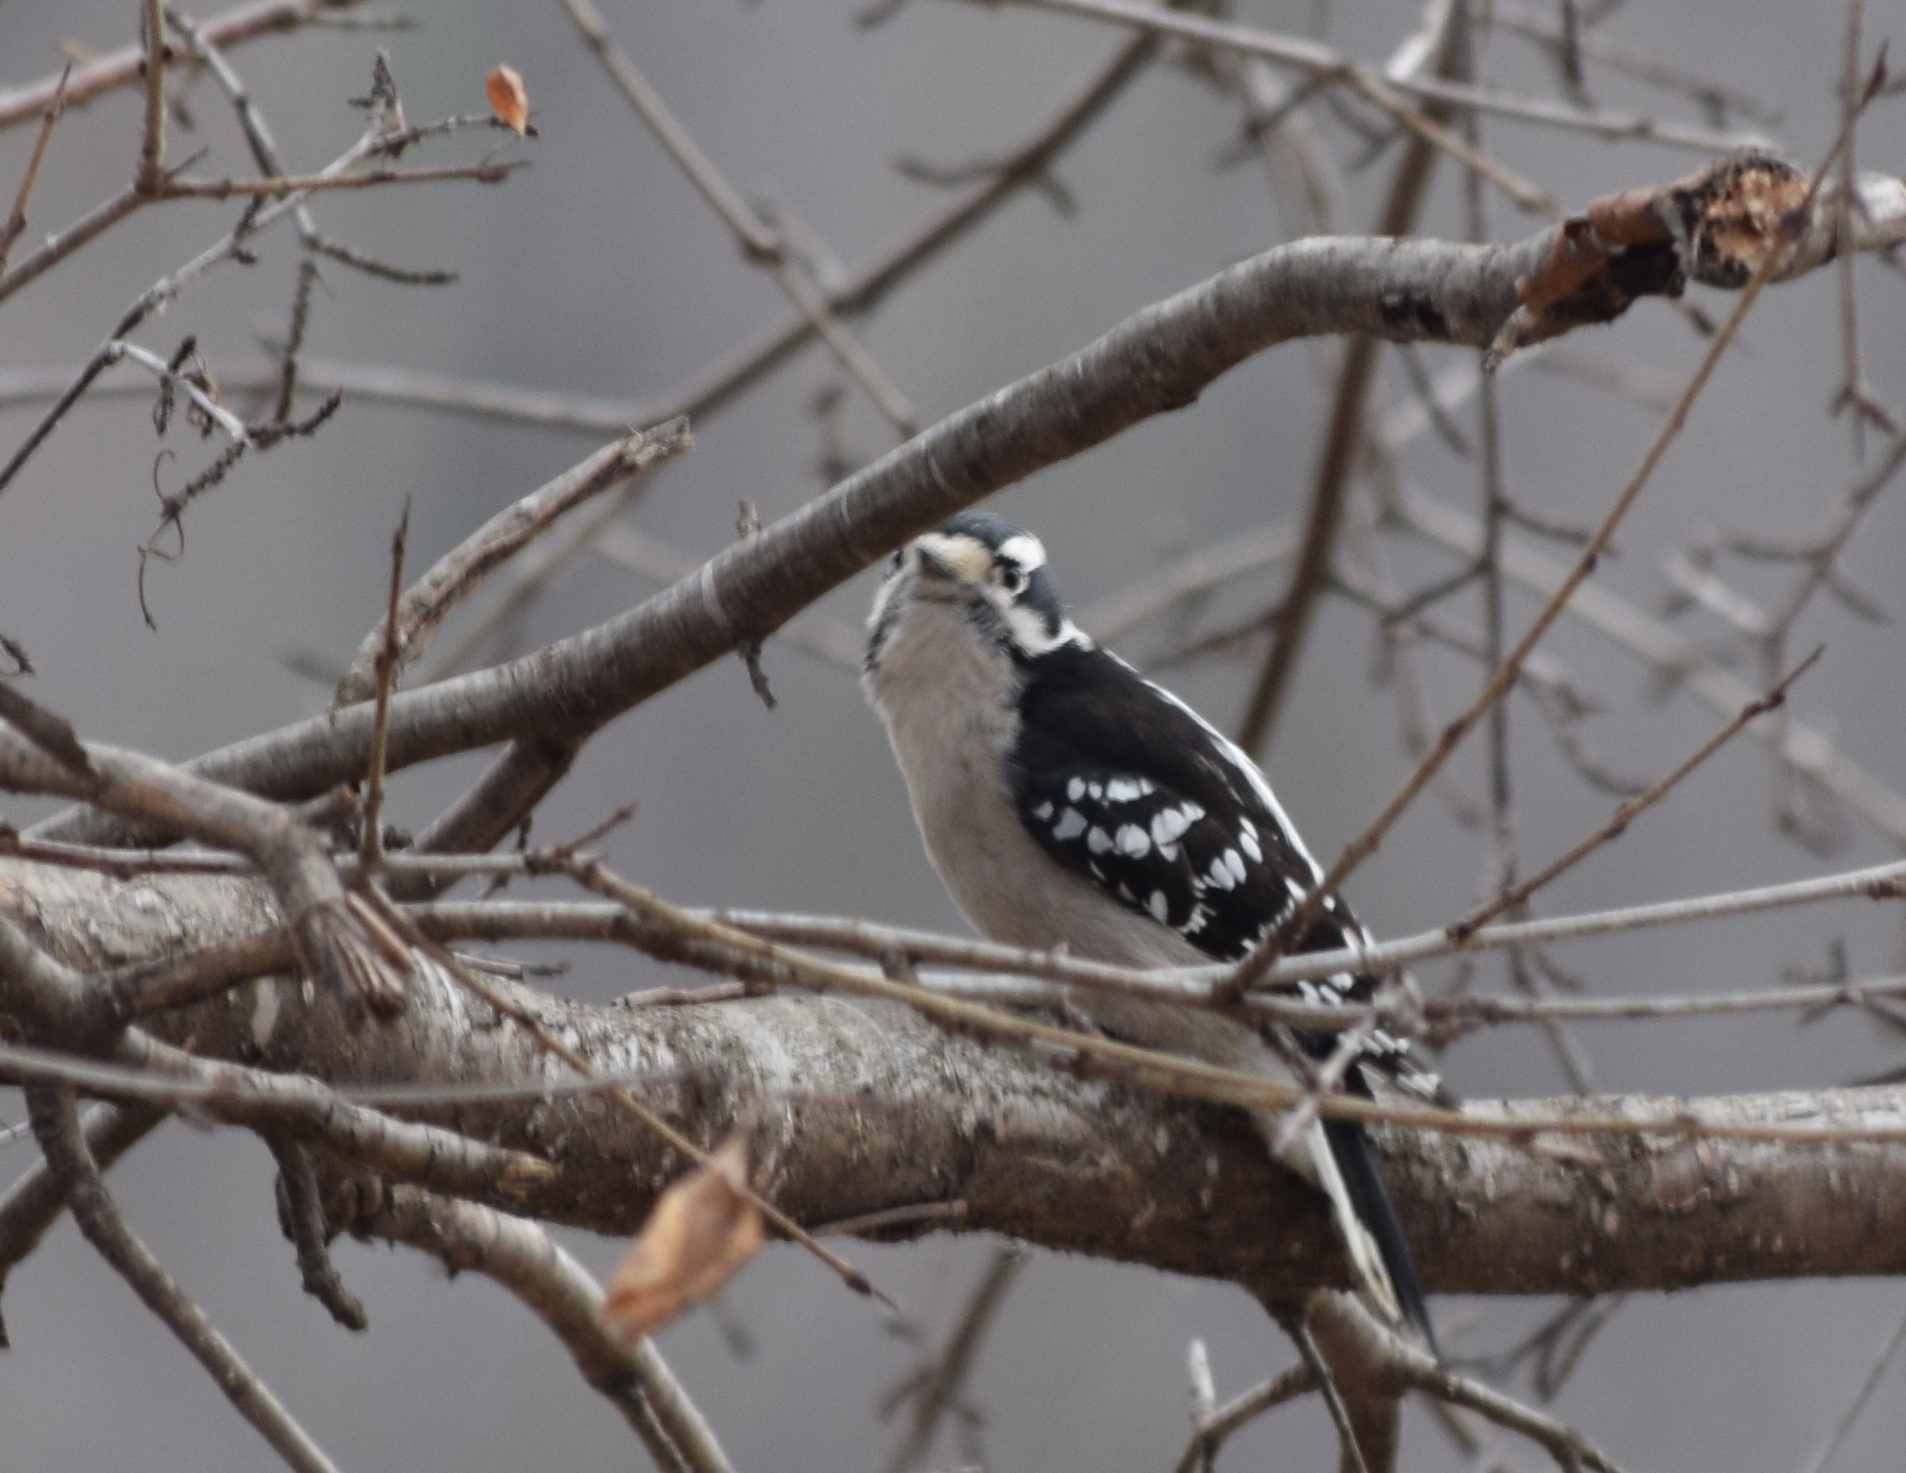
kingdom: Animalia
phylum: Chordata
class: Aves
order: Piciformes
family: Picidae
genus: Dryobates
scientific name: Dryobates pubescens
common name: Downy woodpecker
